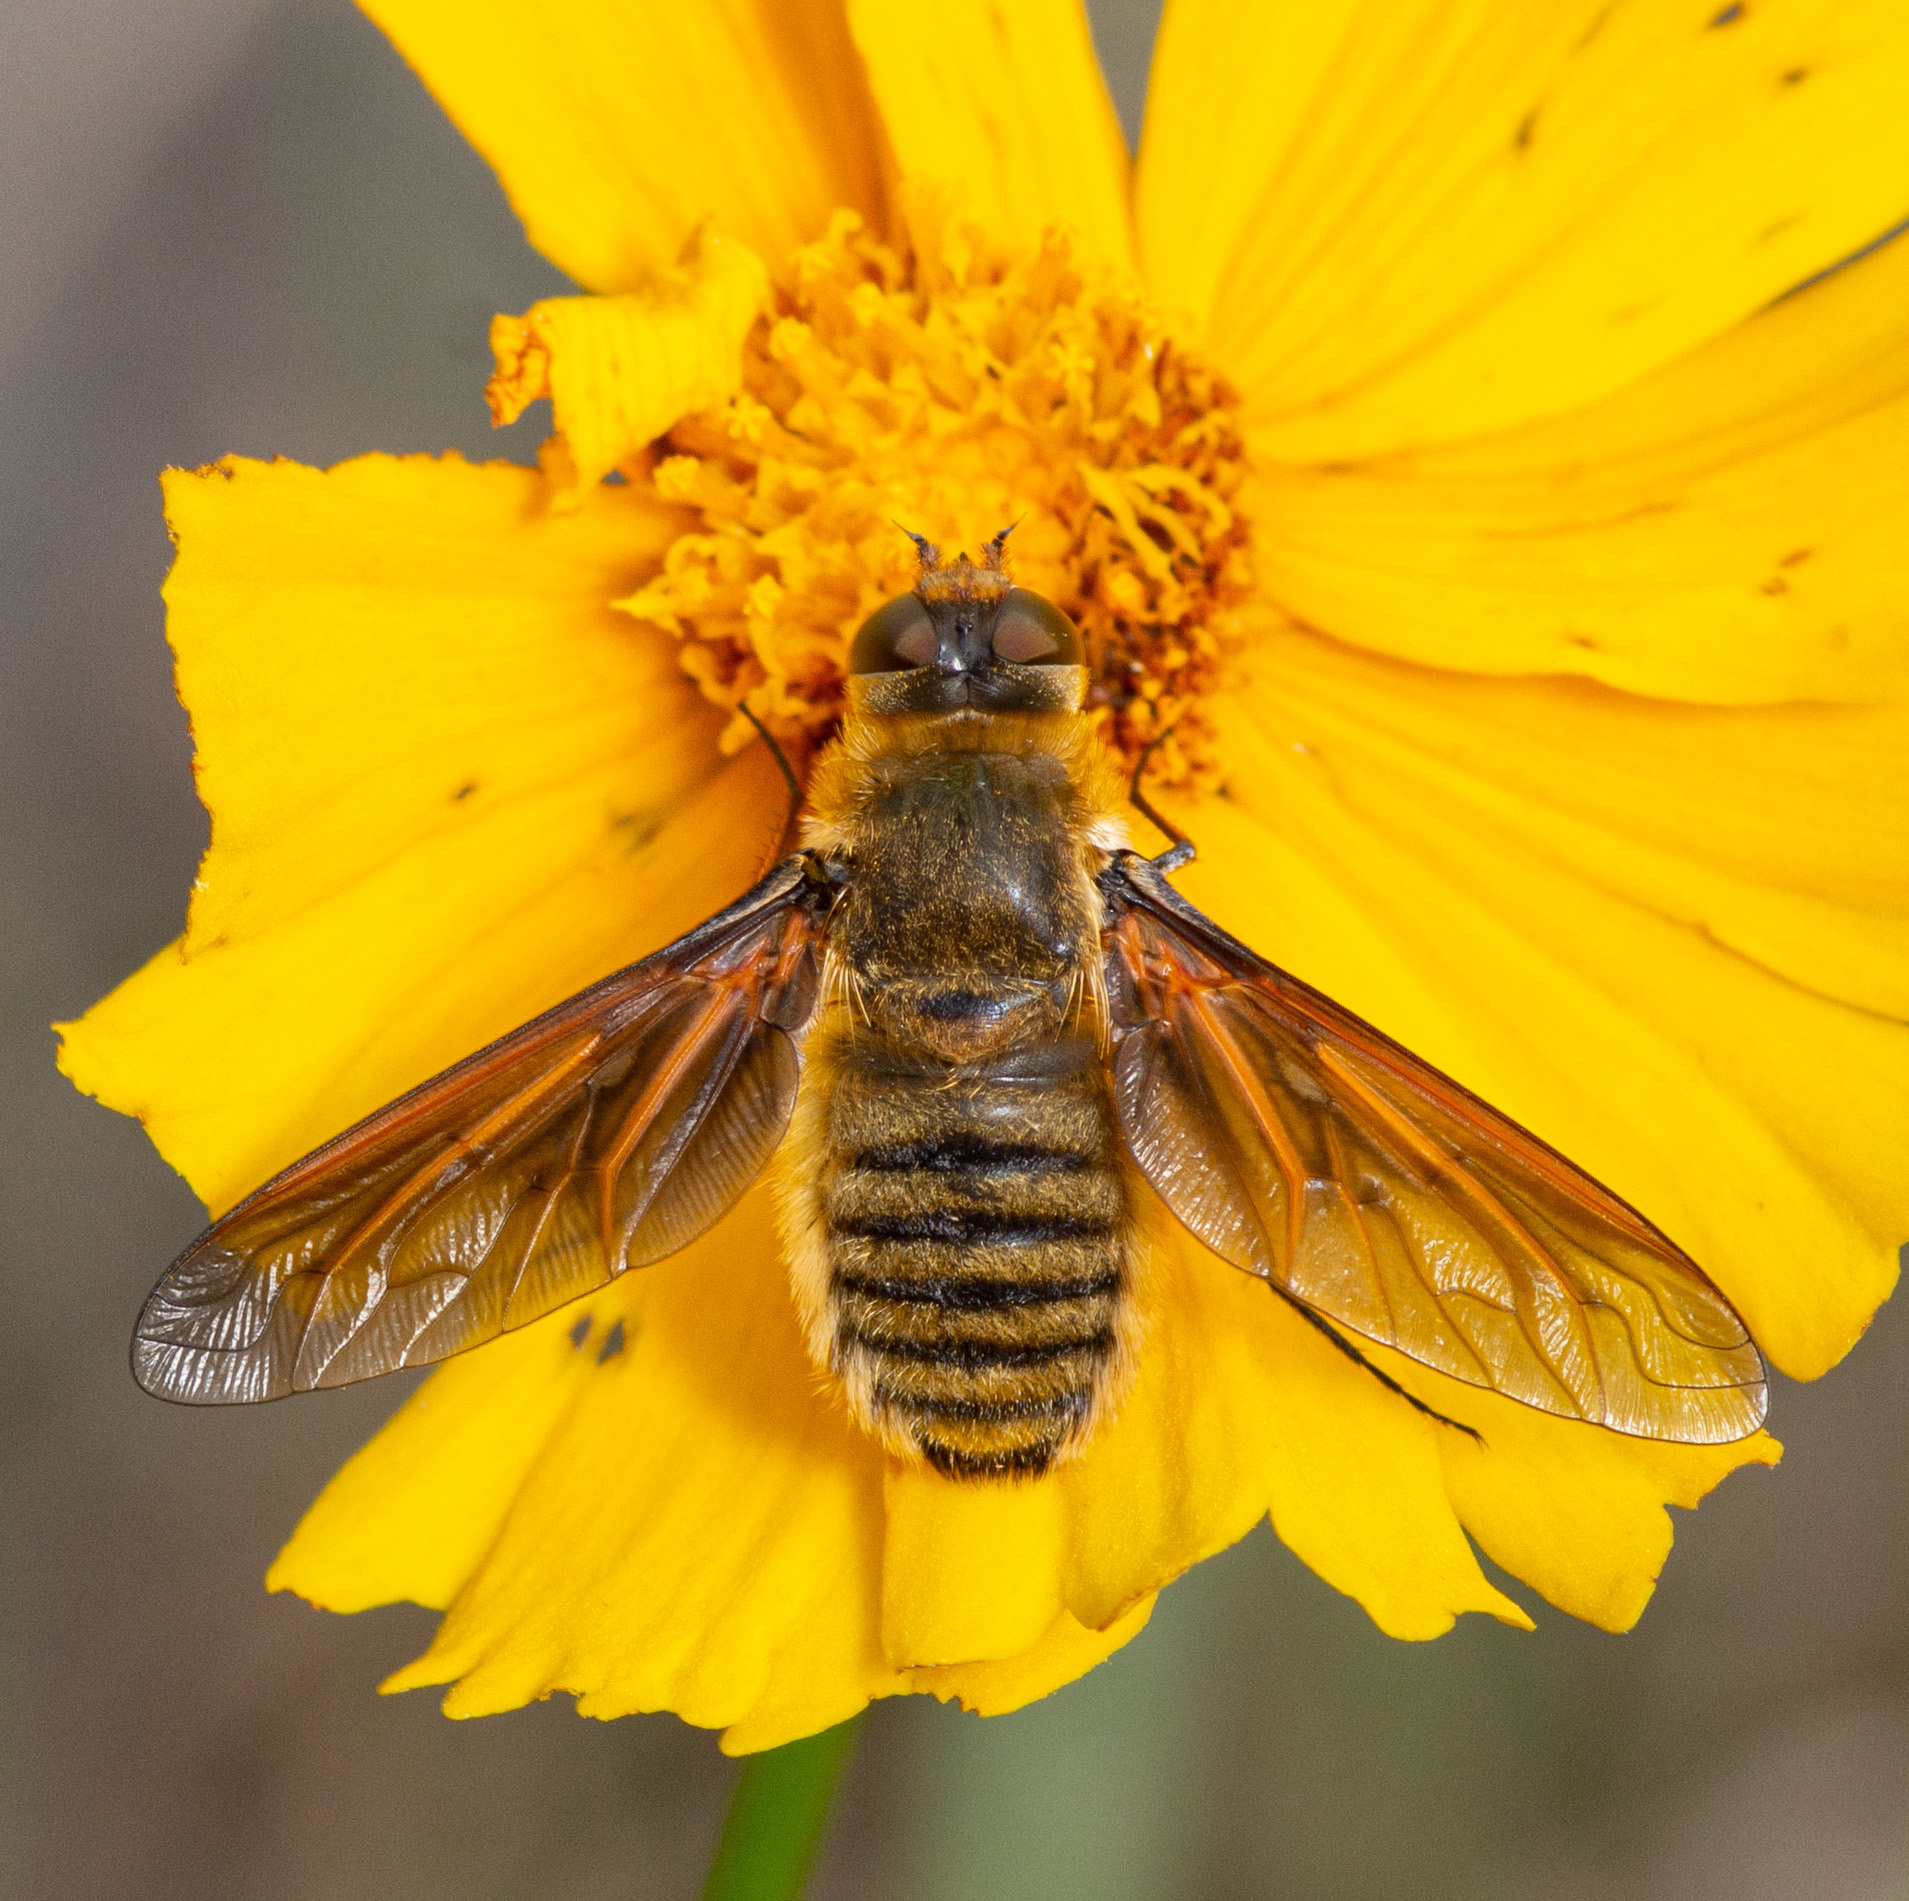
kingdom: Animalia
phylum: Arthropoda
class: Insecta
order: Diptera
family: Bombyliidae
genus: Poecilanthrax
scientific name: Poecilanthrax lucifer
